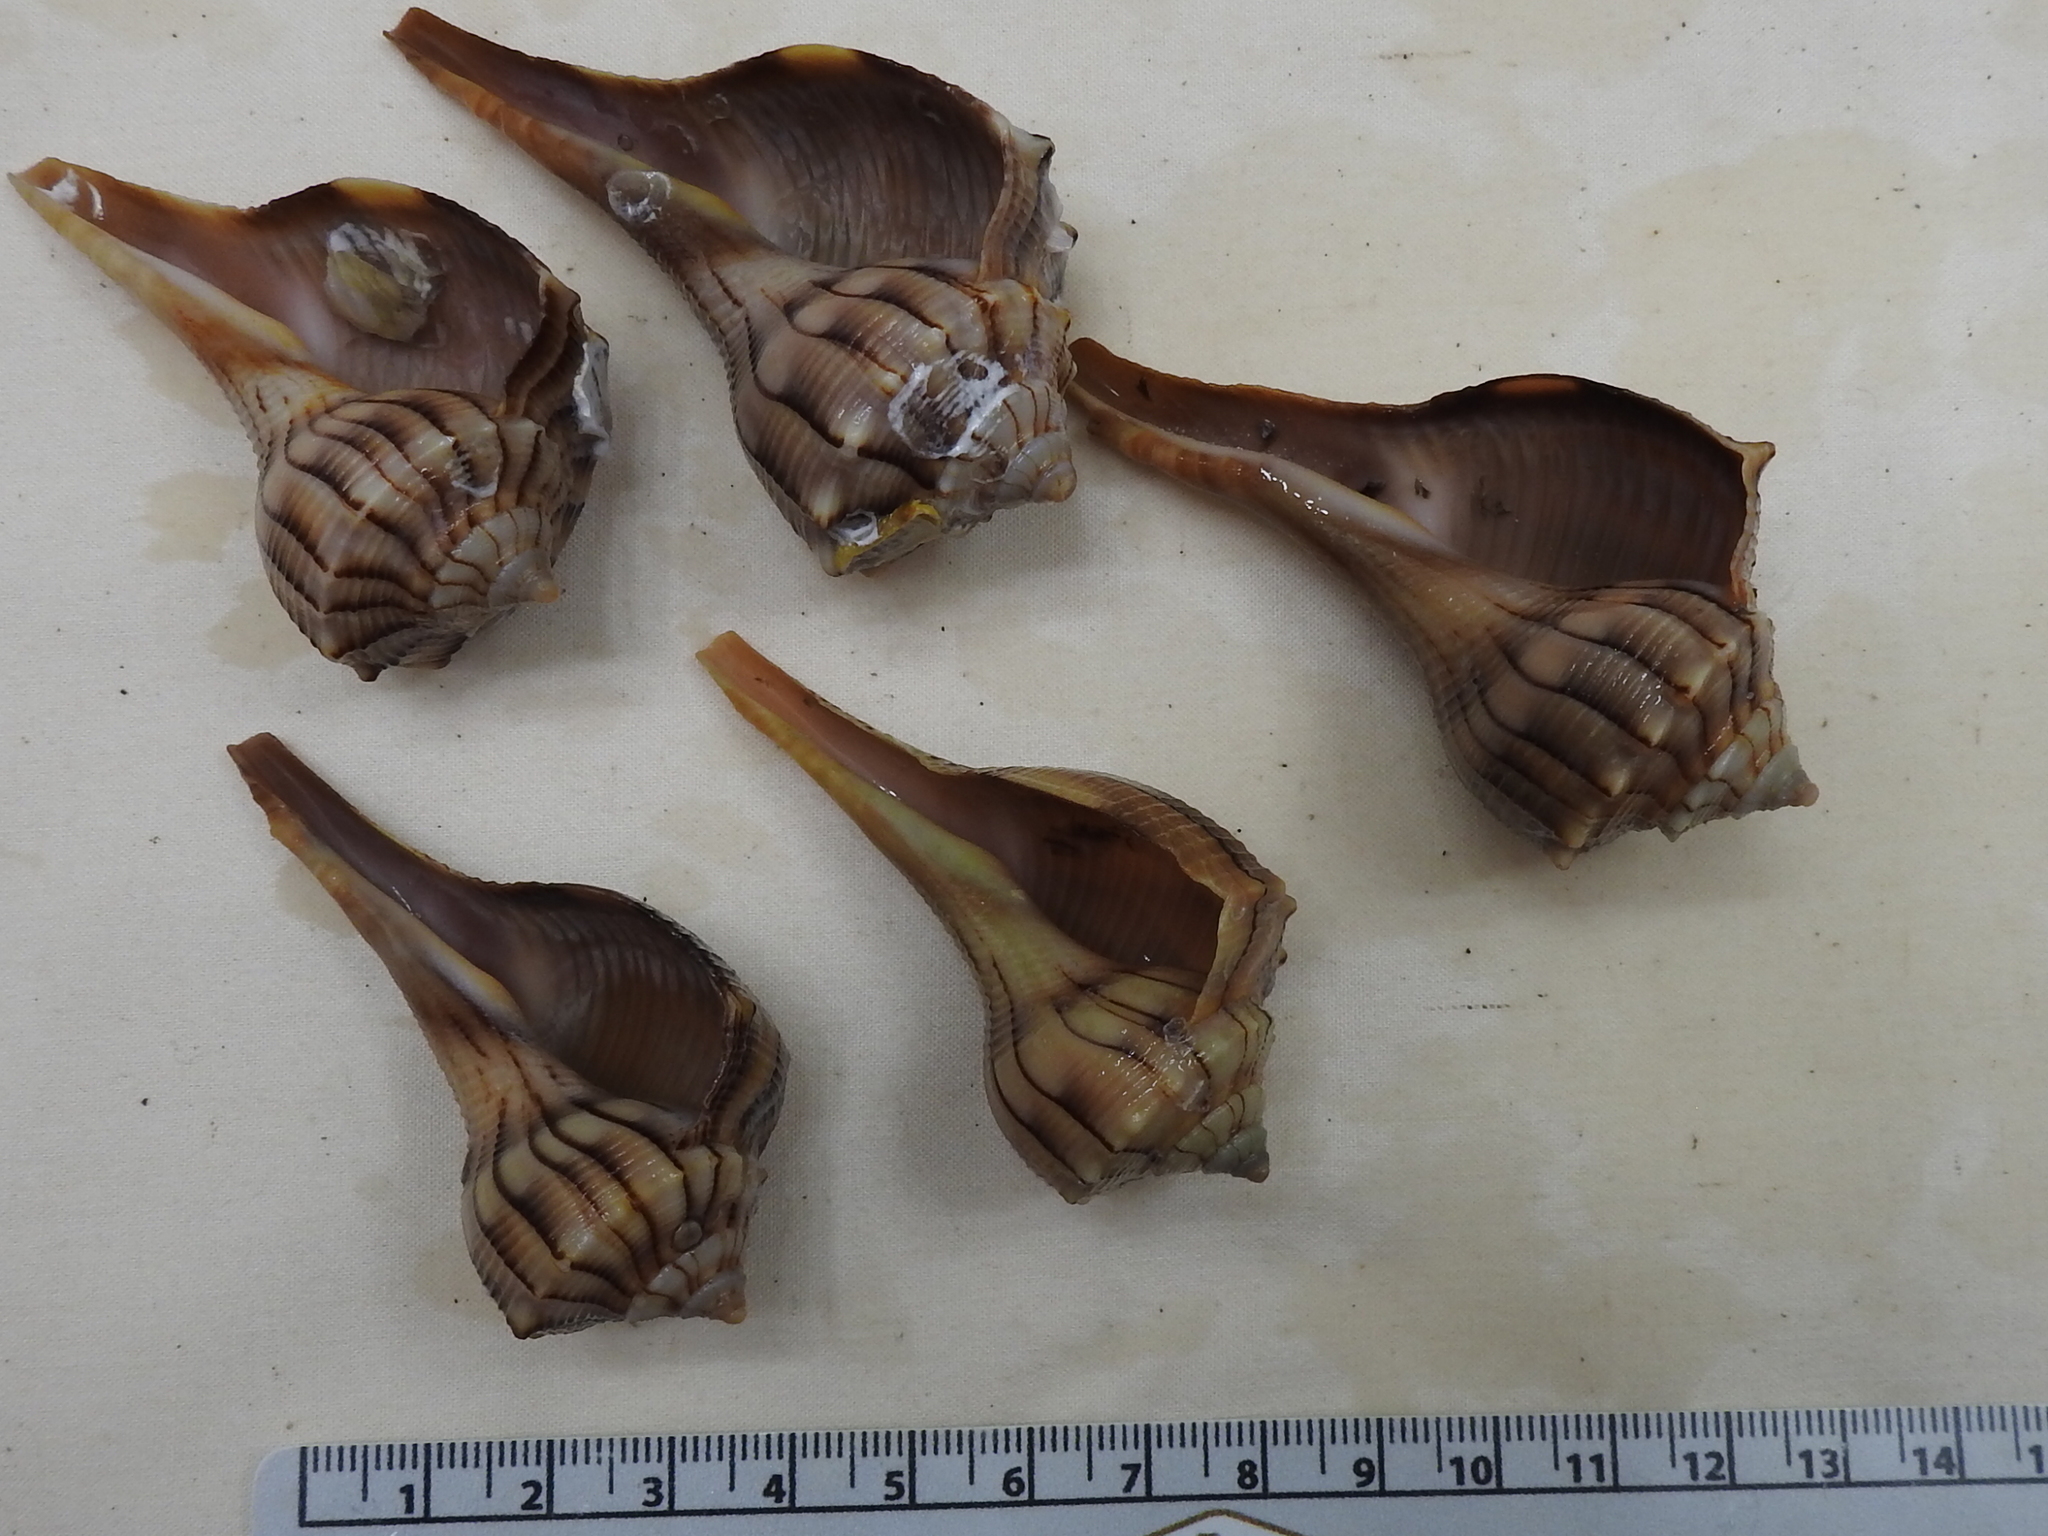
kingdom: Animalia
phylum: Mollusca
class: Gastropoda
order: Neogastropoda
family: Busyconidae
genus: Sinistrofulgur
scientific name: Sinistrofulgur sinistrum
